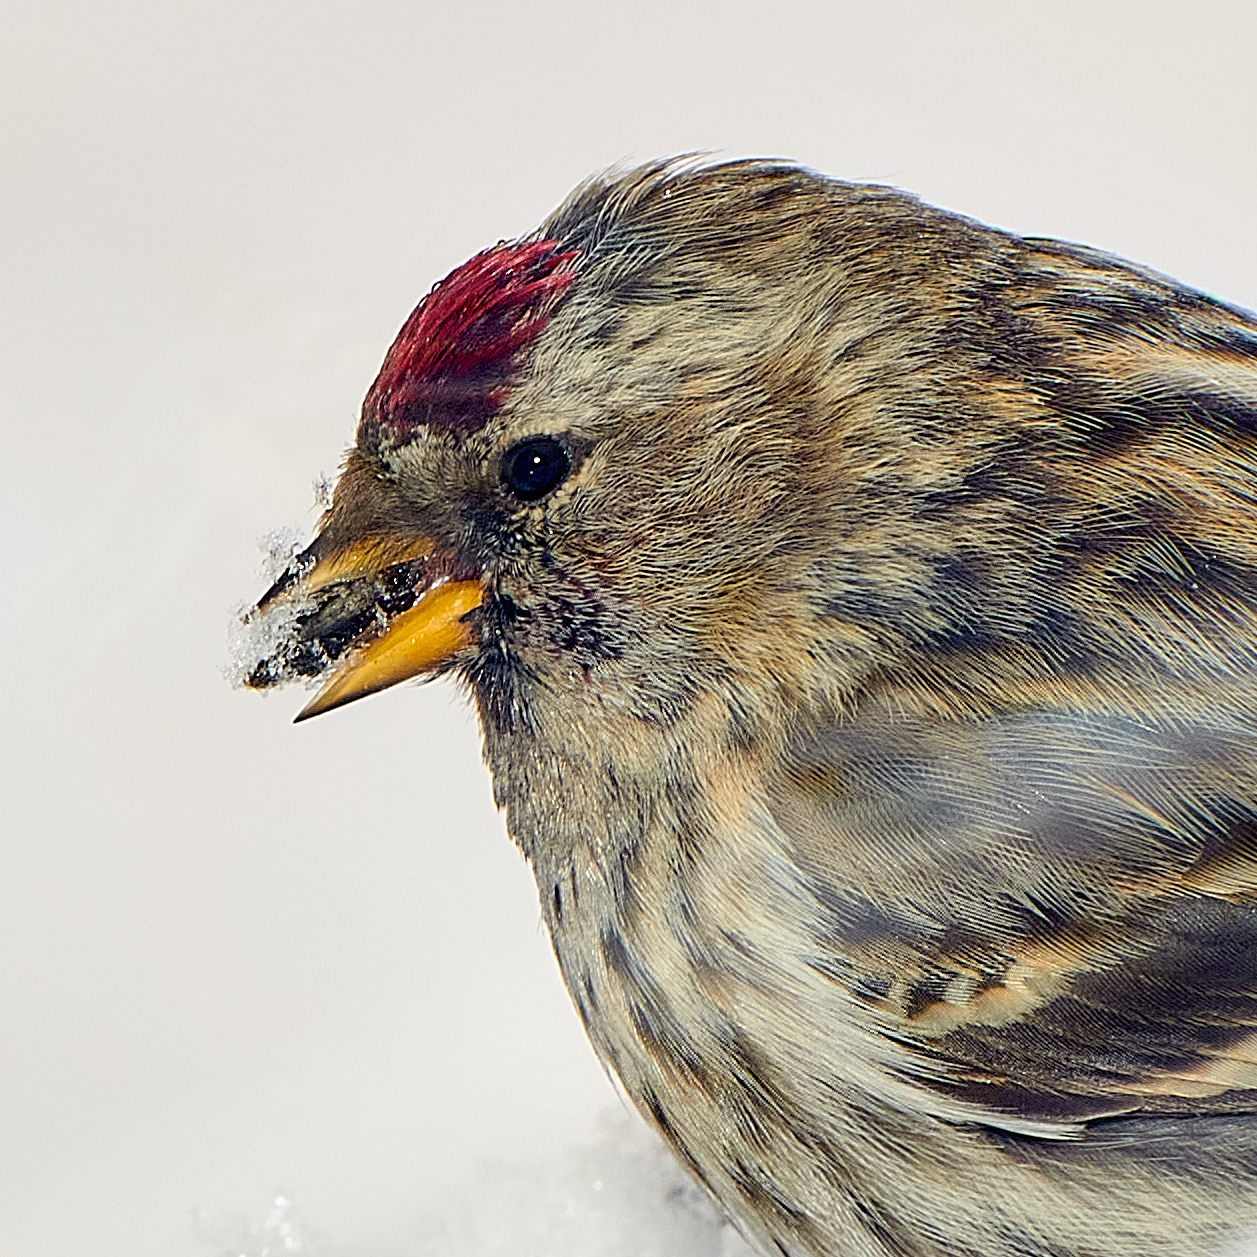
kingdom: Animalia
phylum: Chordata
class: Aves
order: Passeriformes
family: Fringillidae
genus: Acanthis
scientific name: Acanthis flammea
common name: Common redpoll
